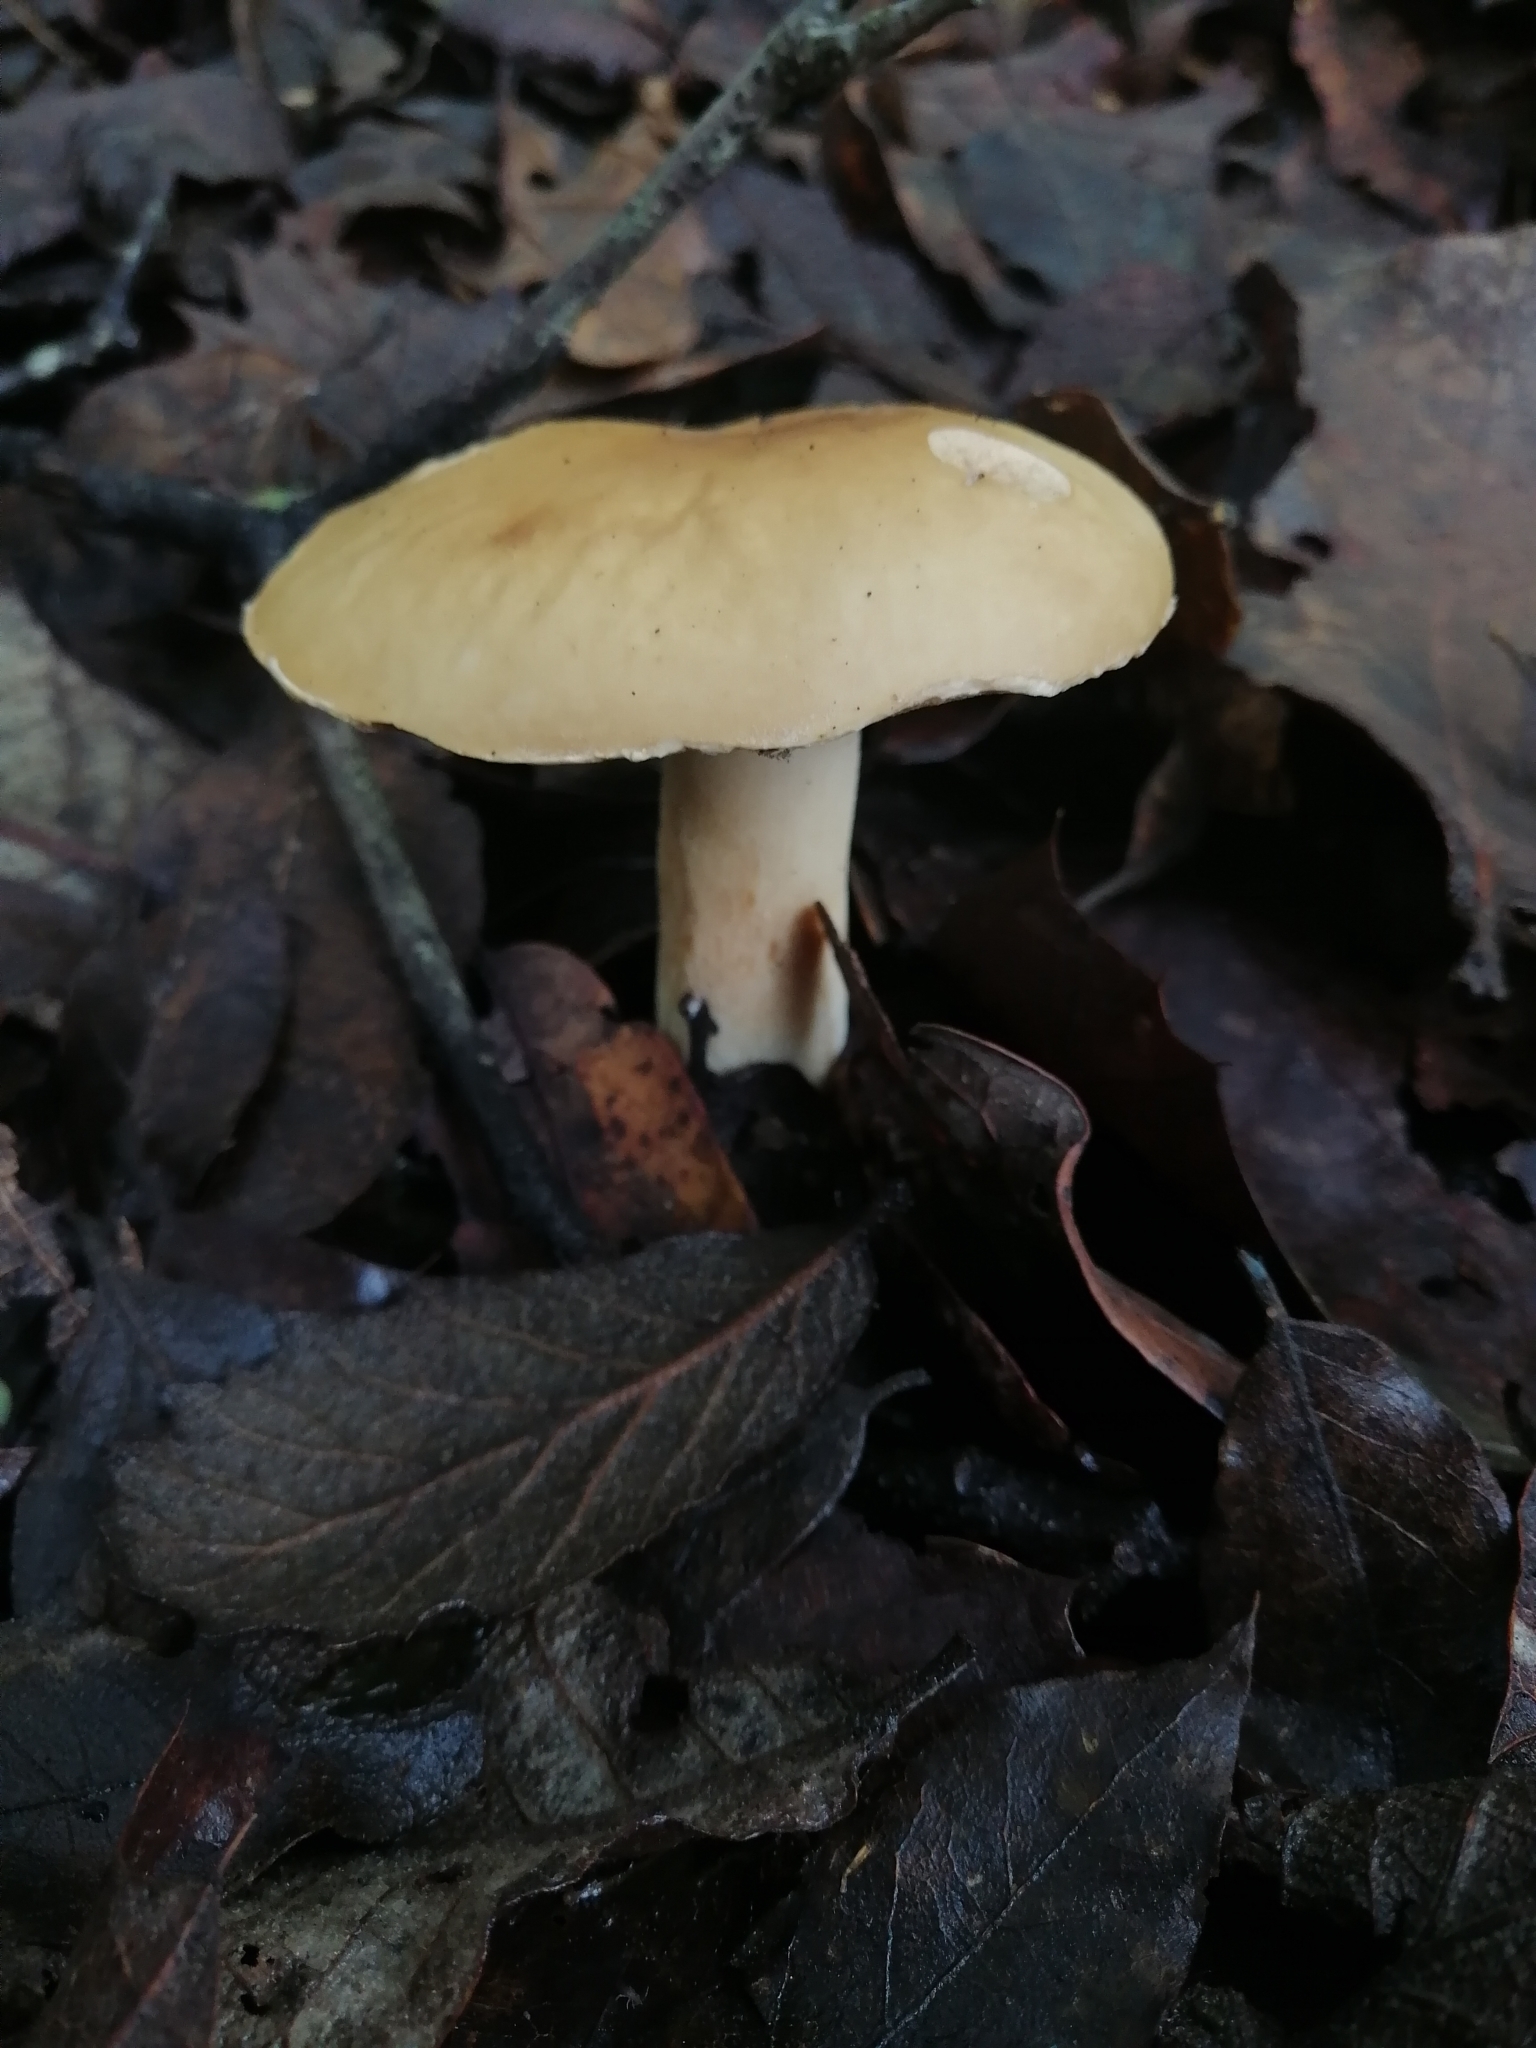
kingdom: Fungi
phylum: Basidiomycota
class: Agaricomycetes
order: Boletales
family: Boletaceae
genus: Imleria
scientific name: Imleria pallida
